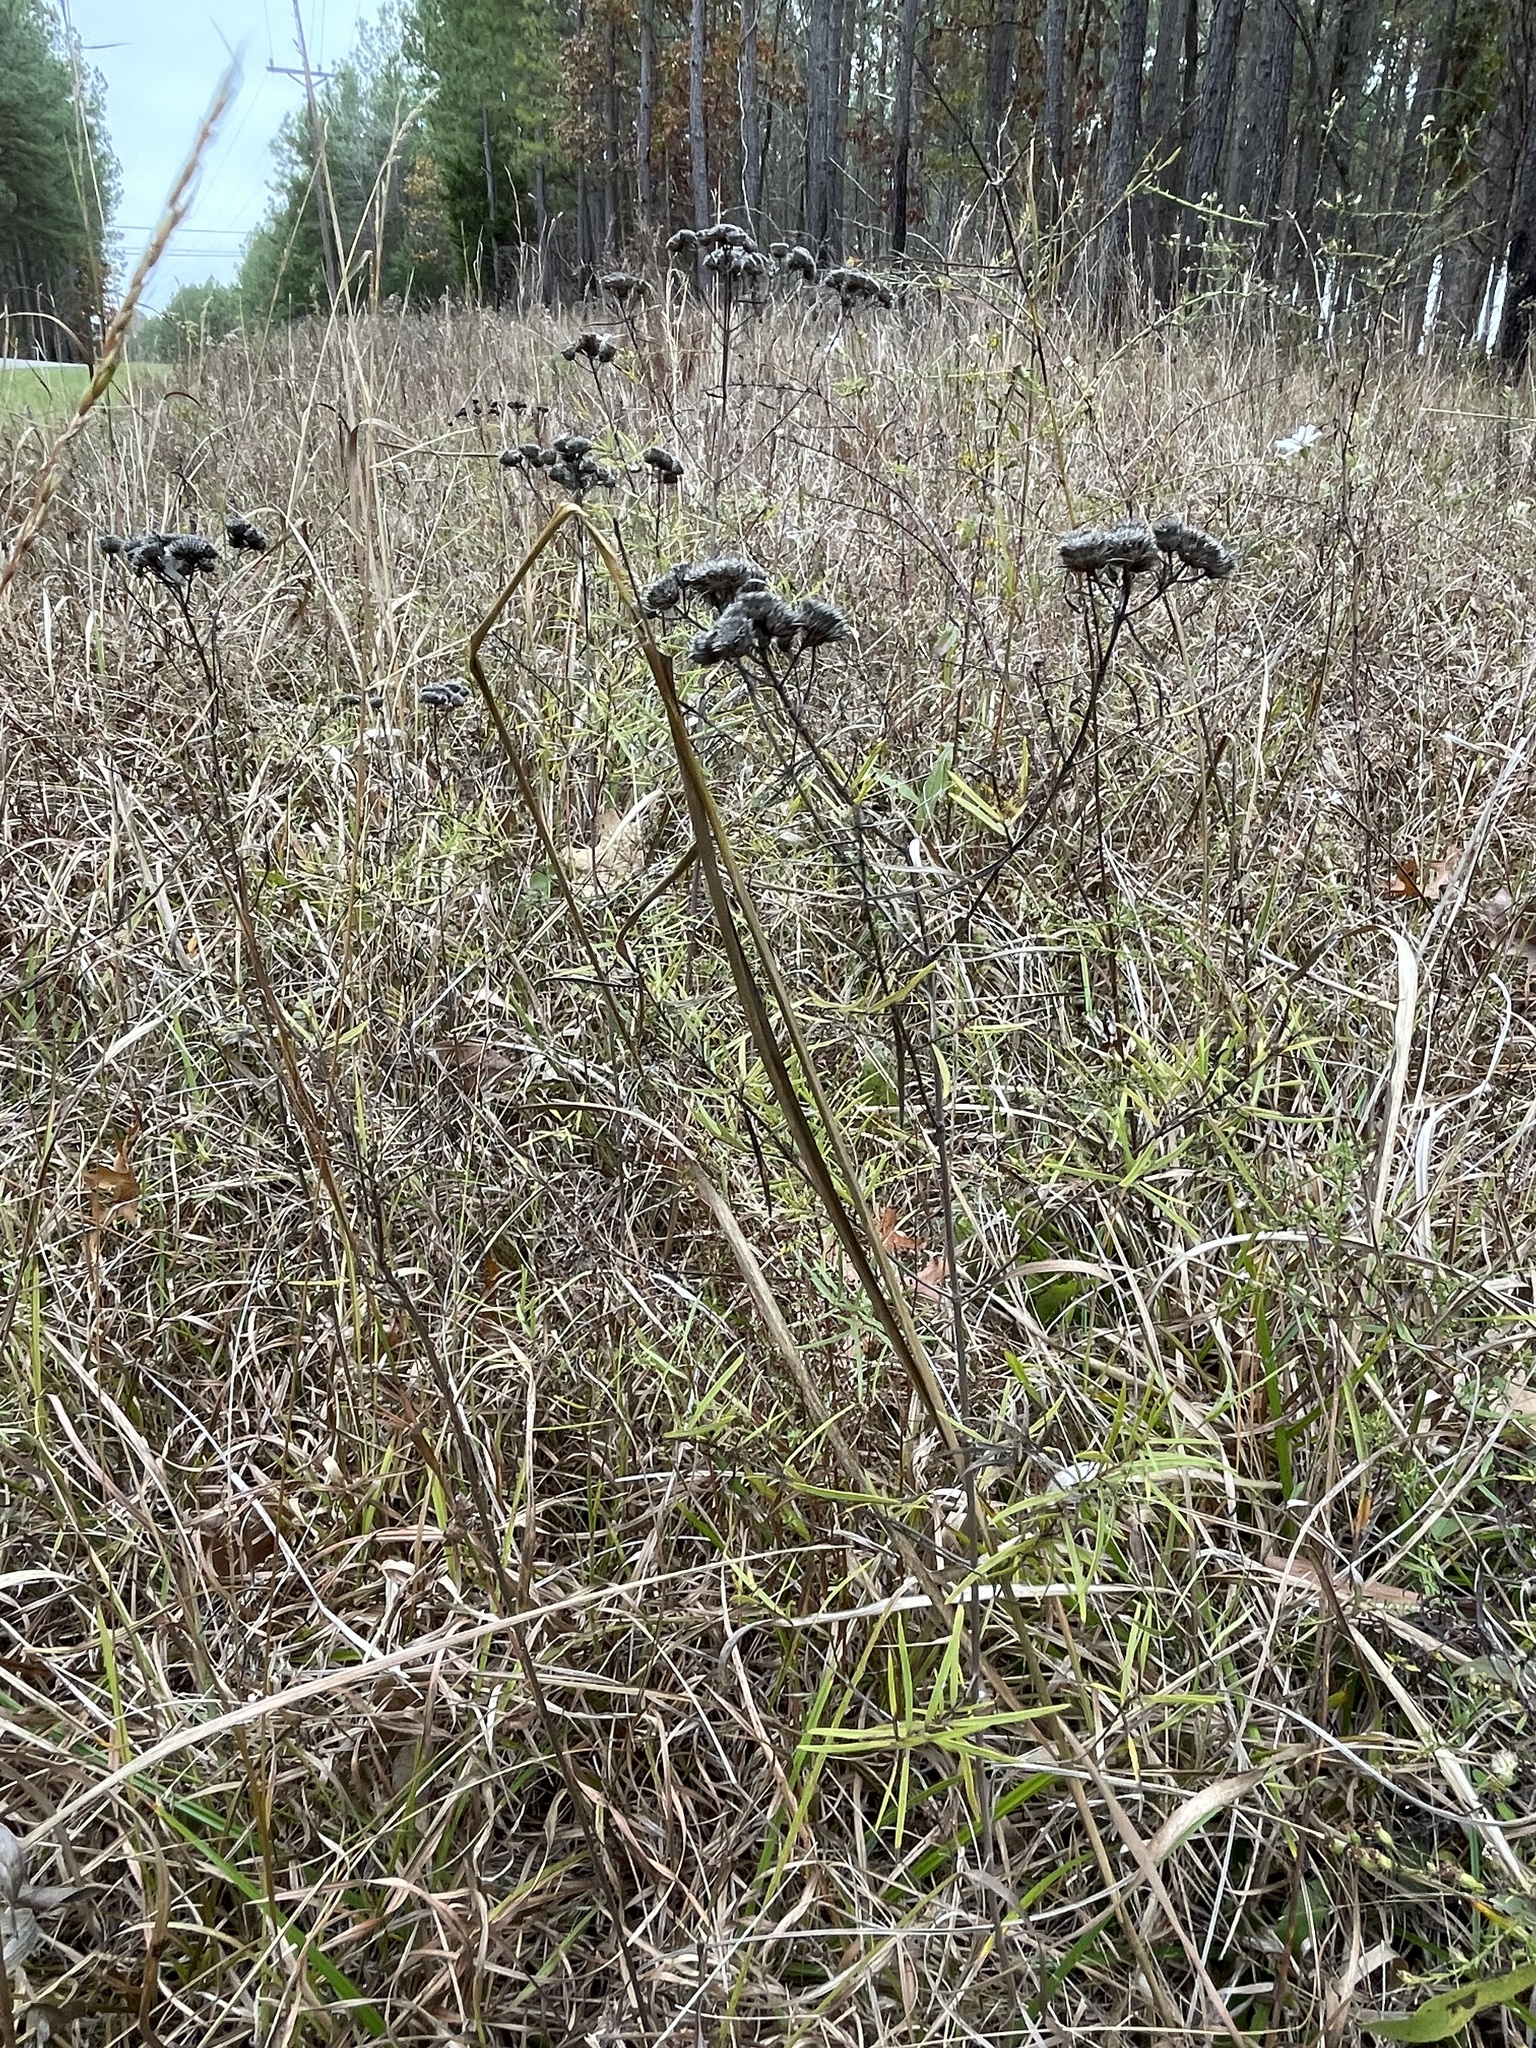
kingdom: Plantae
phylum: Tracheophyta
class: Magnoliopsida
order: Lamiales
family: Lamiaceae
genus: Pycnanthemum
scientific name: Pycnanthemum tenuifolium
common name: Narrow-leaf mountain-mint
